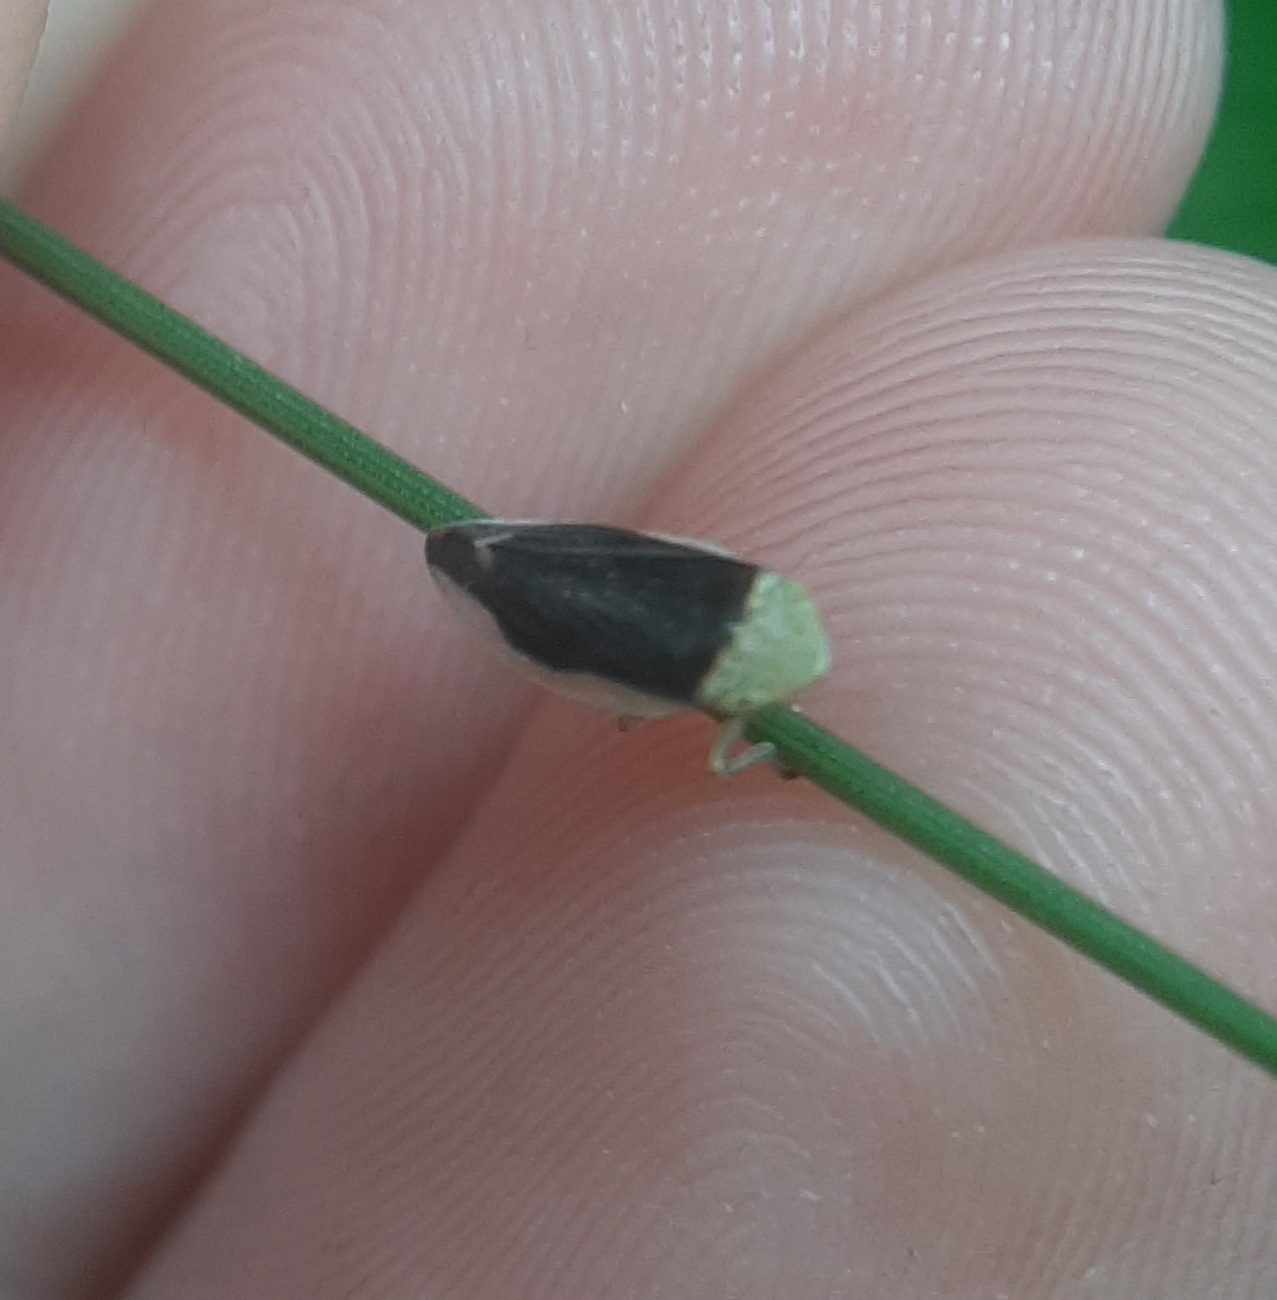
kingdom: Animalia
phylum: Arthropoda
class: Insecta
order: Hemiptera
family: Aphrophoridae
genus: Philaenus
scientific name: Philaenus spumarius
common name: Meadow spittlebug
